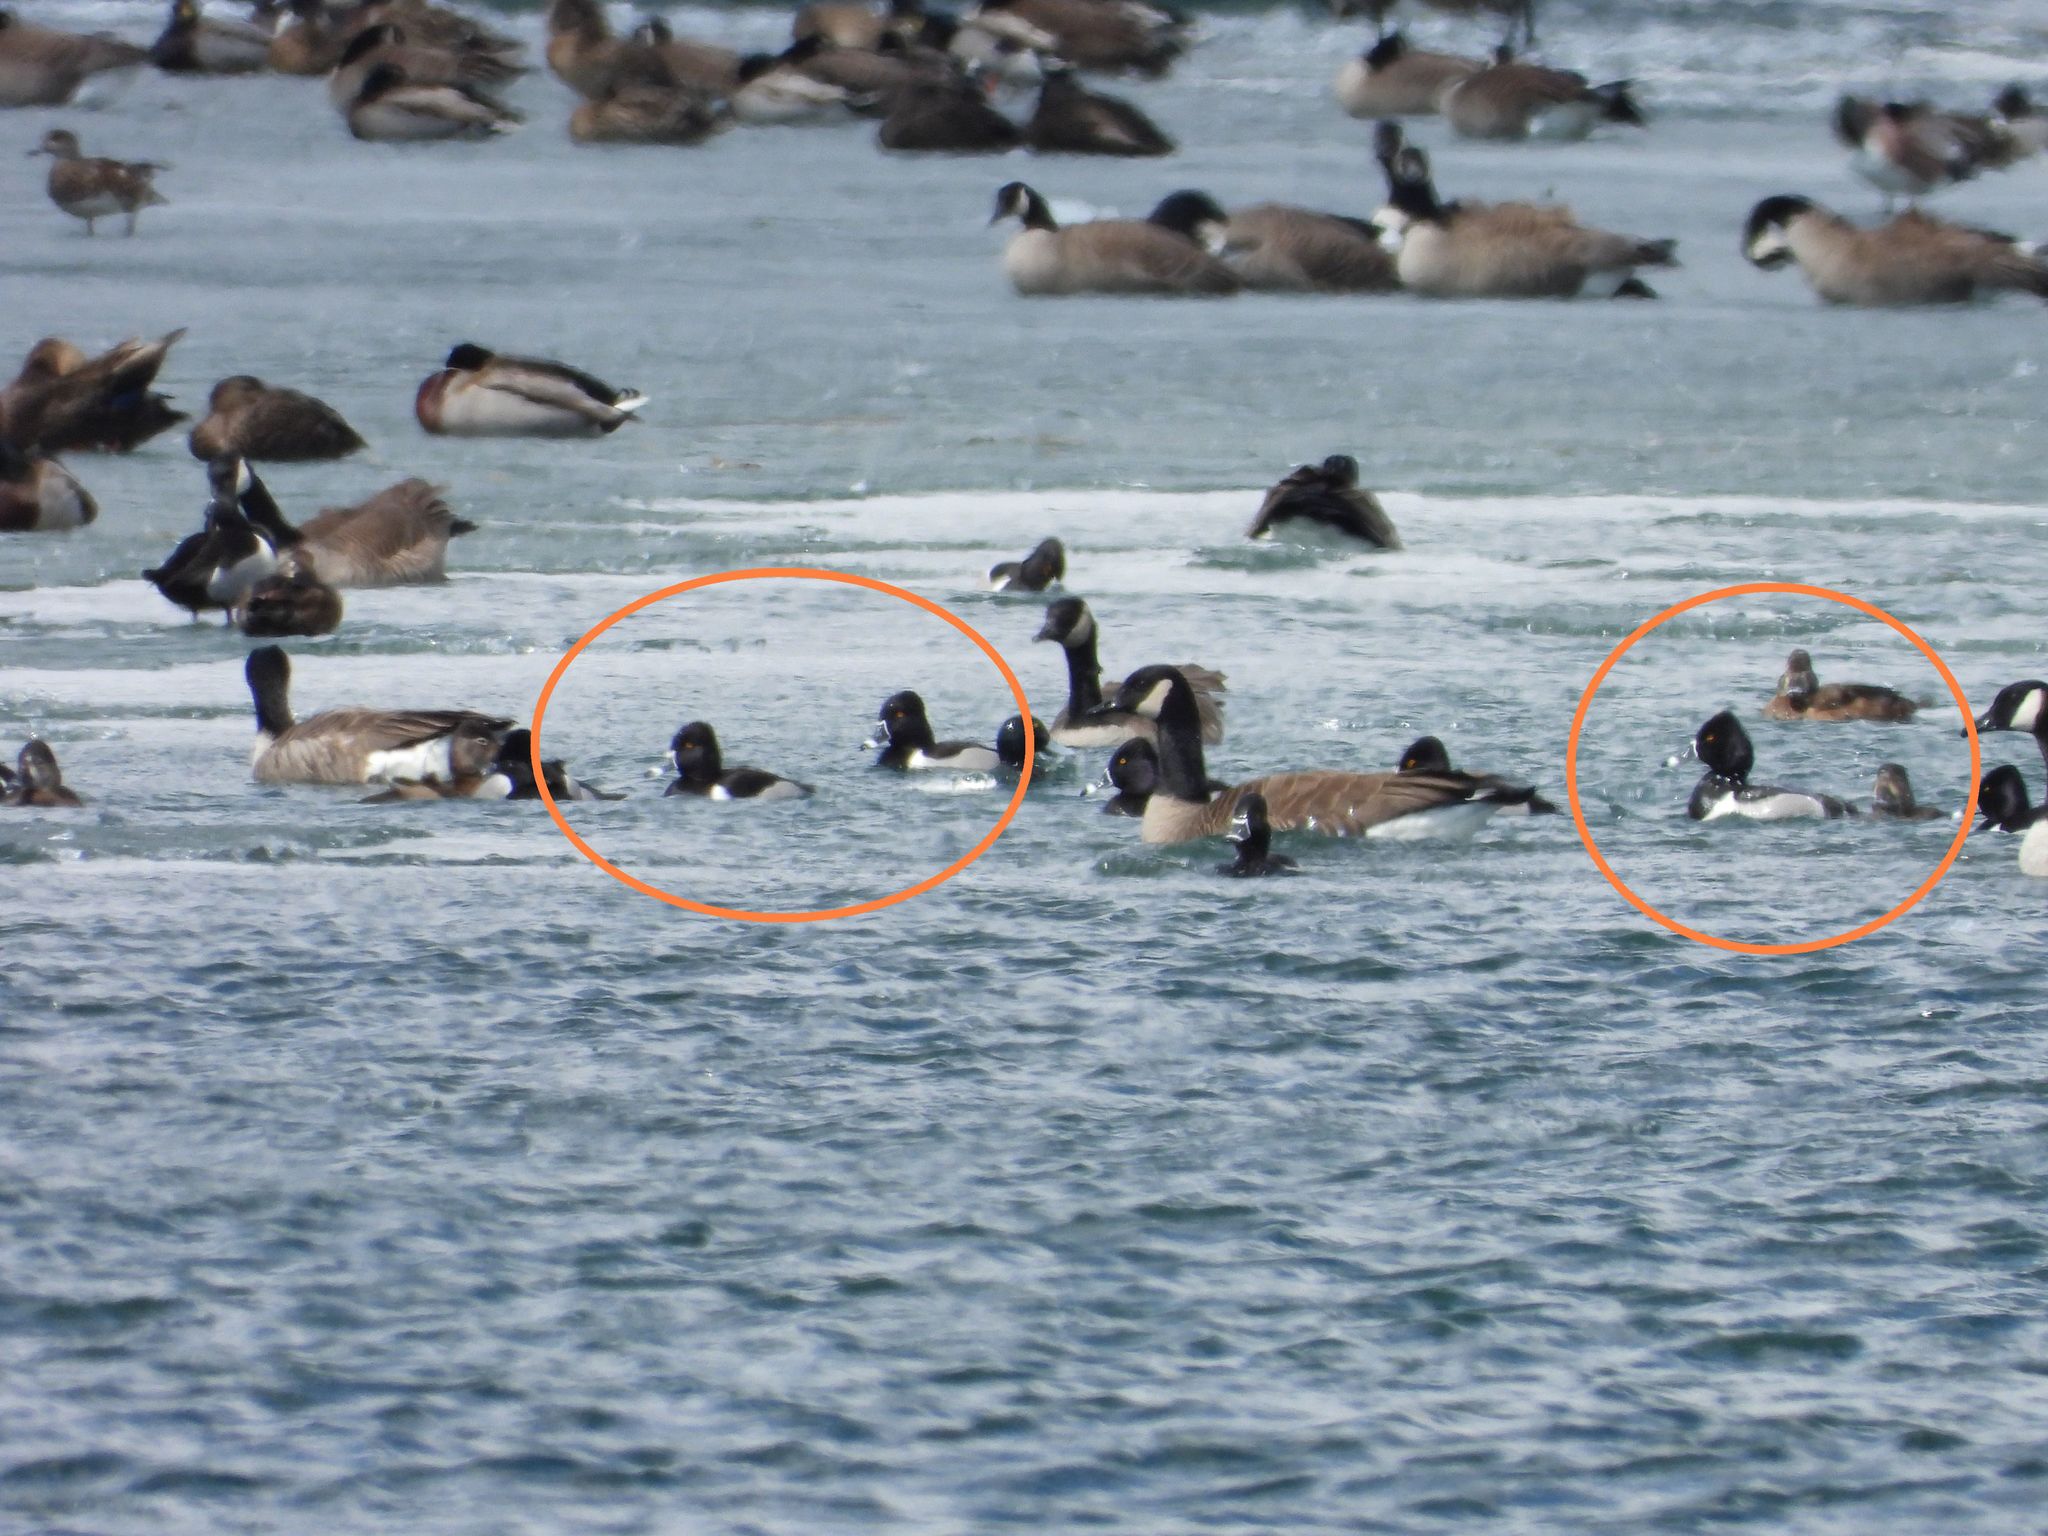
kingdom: Animalia
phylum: Chordata
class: Aves
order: Anseriformes
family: Anatidae
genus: Aythya
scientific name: Aythya collaris
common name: Ring-necked duck
